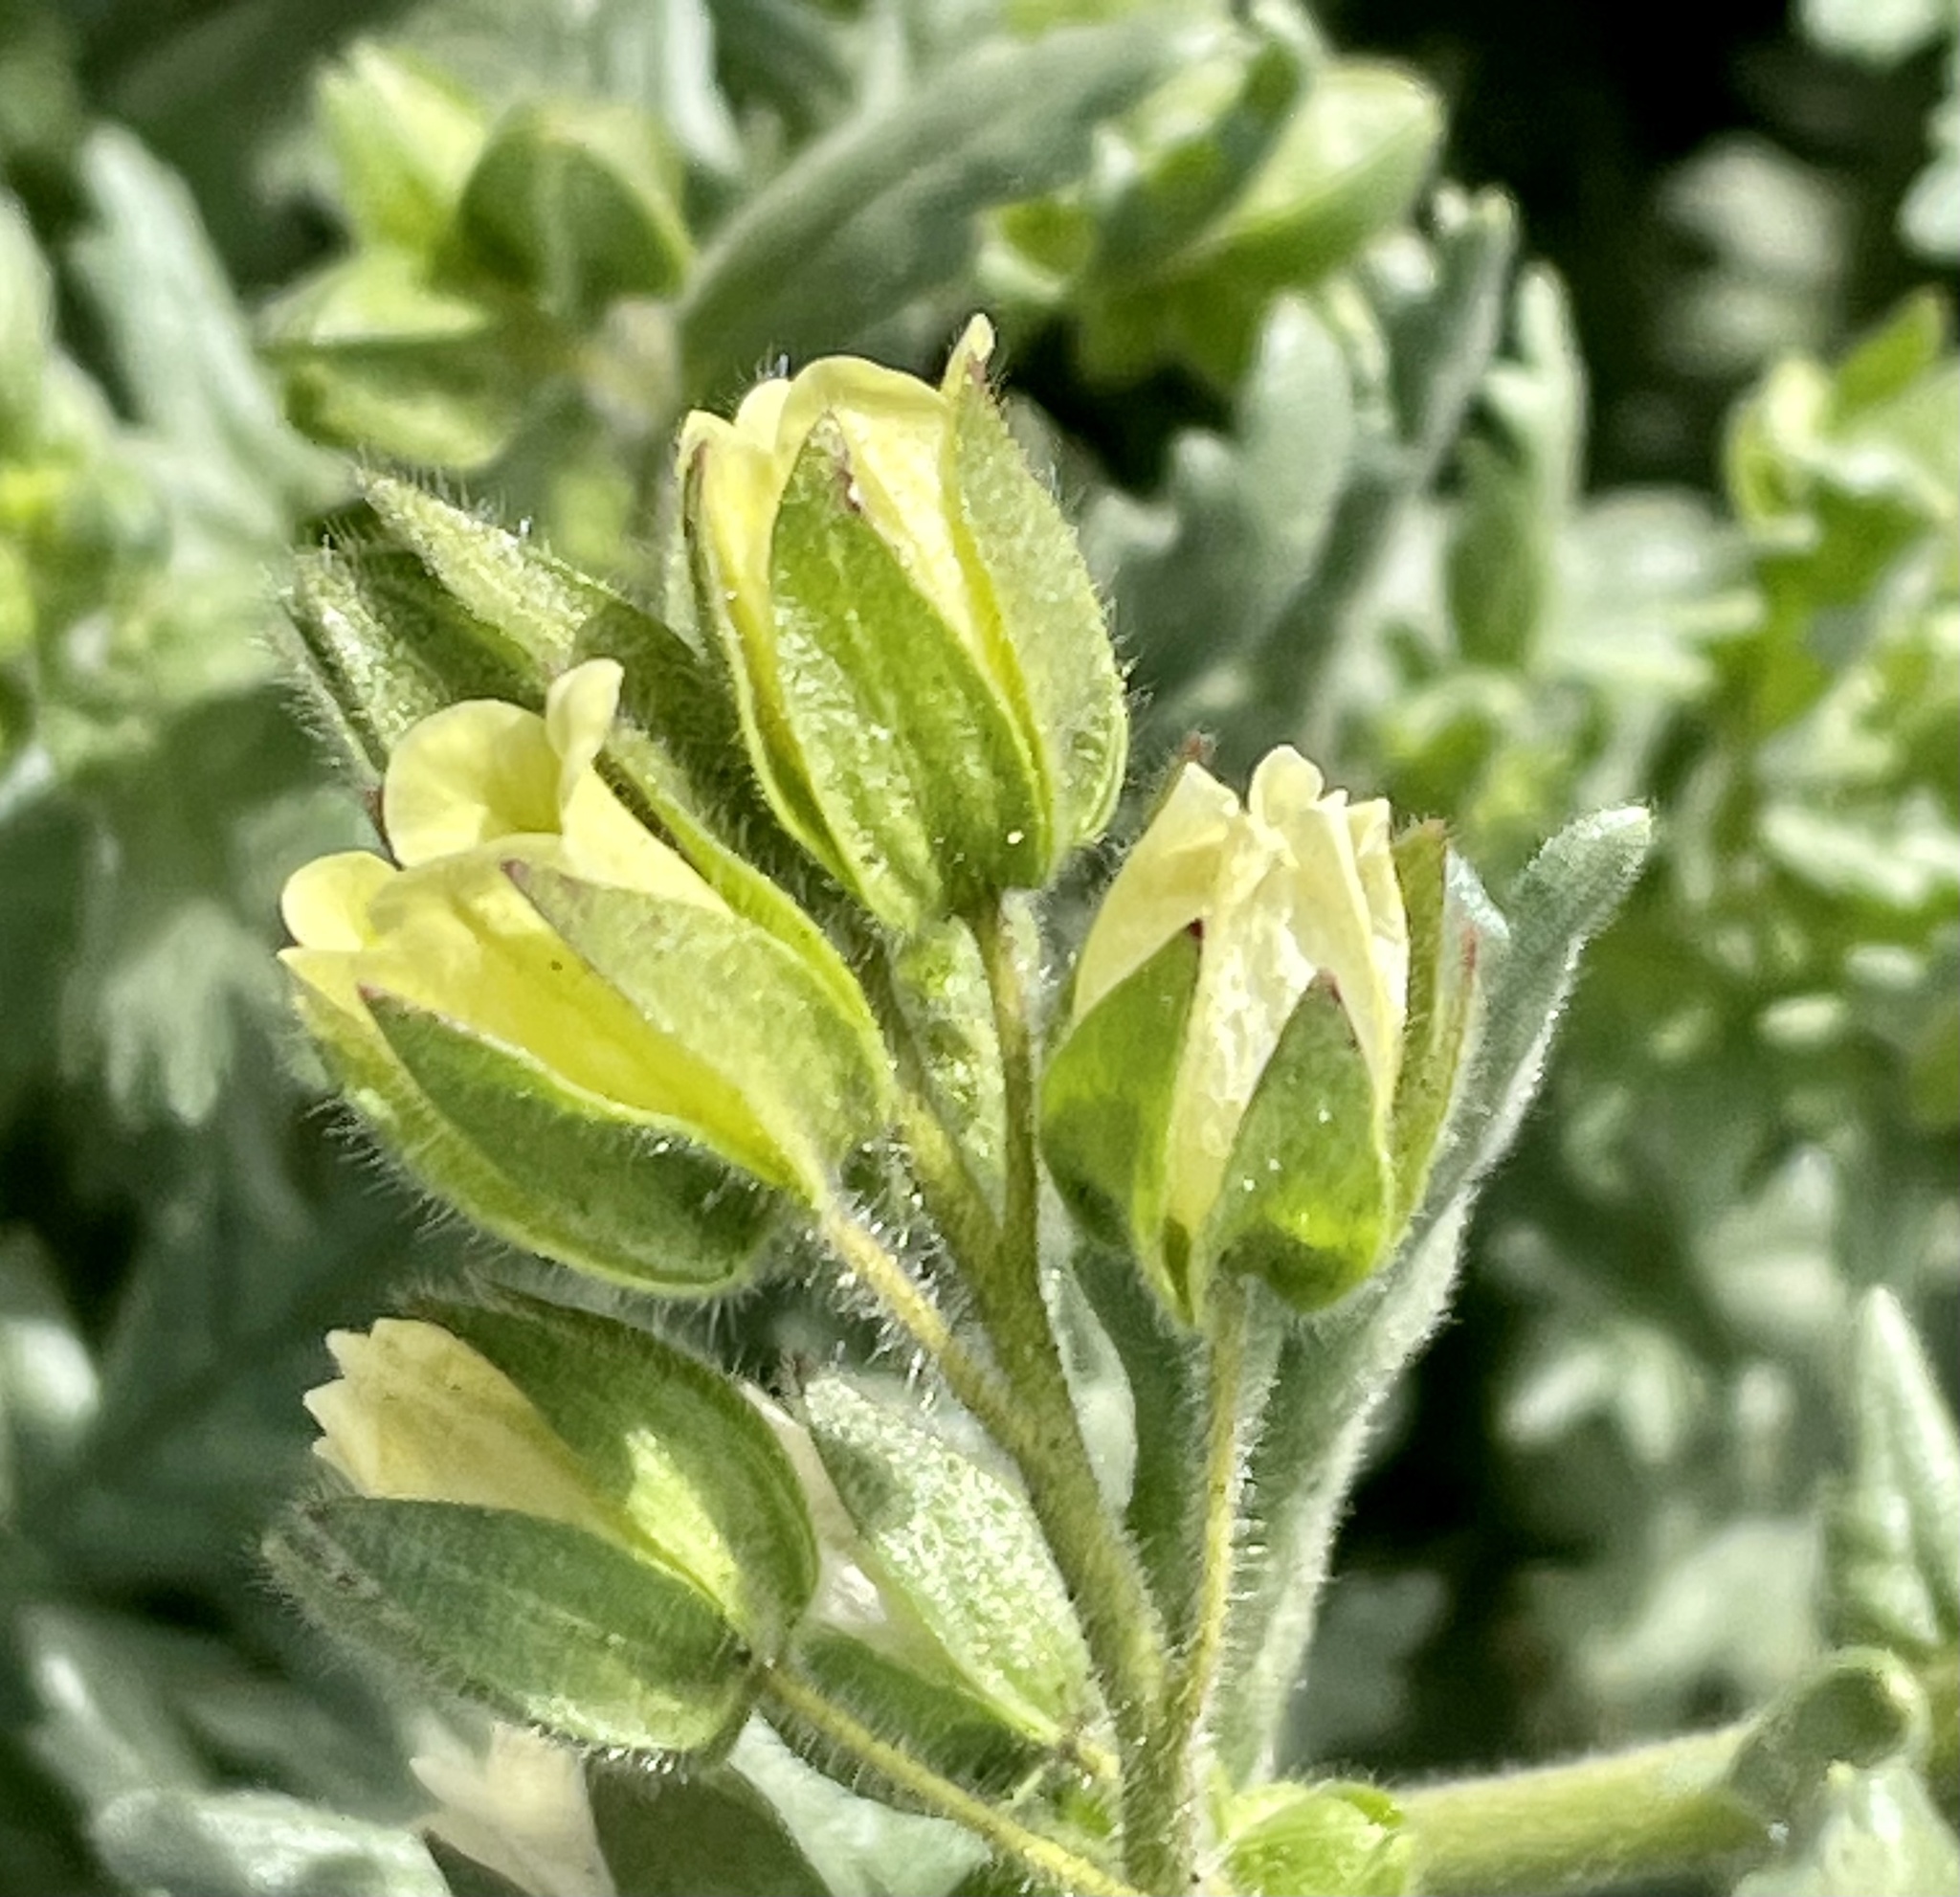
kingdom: Plantae
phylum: Tracheophyta
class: Magnoliopsida
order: Boraginales
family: Hydrophyllaceae
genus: Emmenanthe
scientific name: Emmenanthe penduliflora
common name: Whispering-bells
